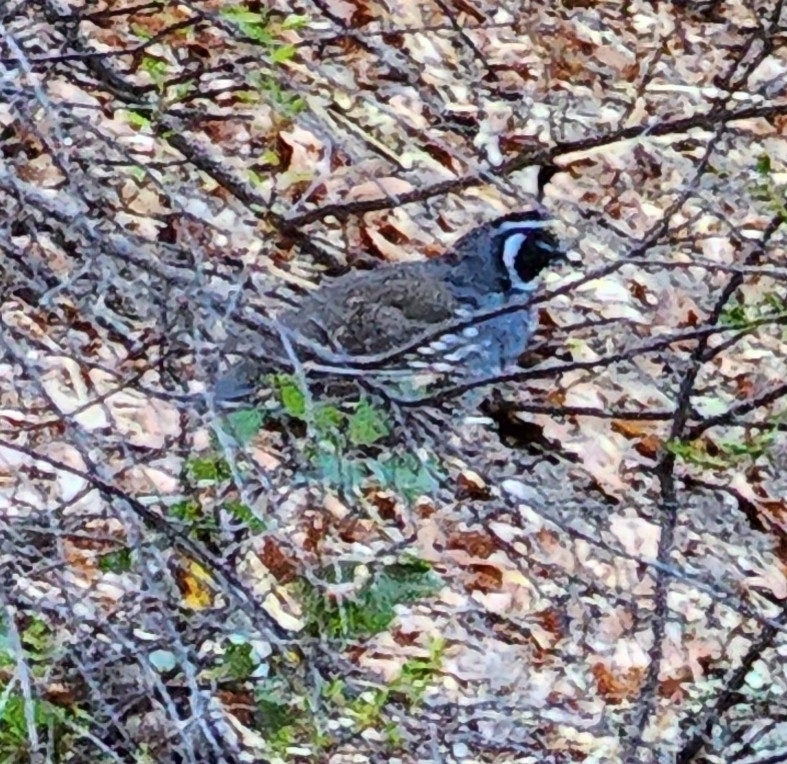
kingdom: Animalia
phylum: Chordata
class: Aves
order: Galliformes
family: Odontophoridae
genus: Callipepla
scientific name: Callipepla californica
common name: California quail
